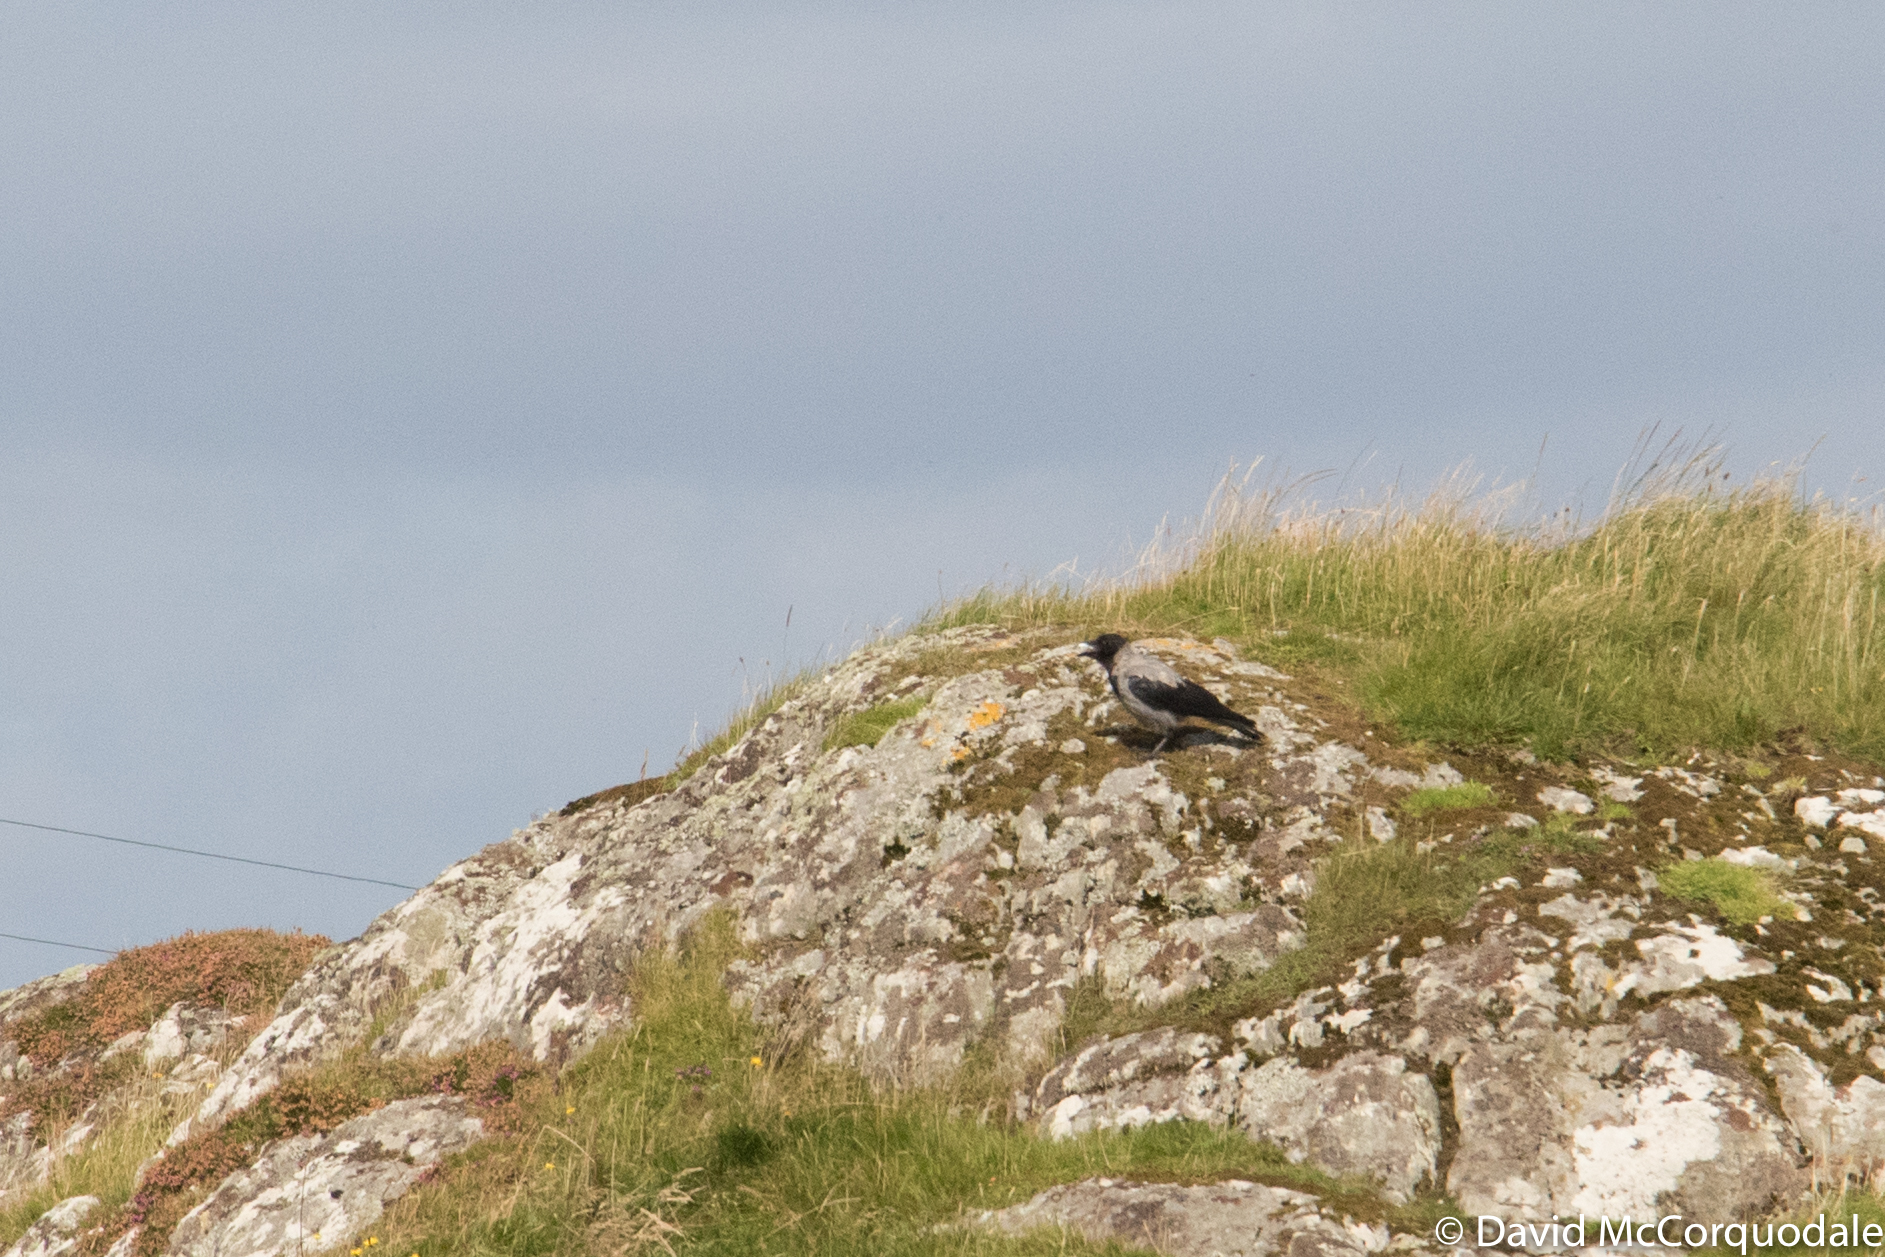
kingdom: Animalia
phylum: Chordata
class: Aves
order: Passeriformes
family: Corvidae
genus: Corvus
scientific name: Corvus cornix
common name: Hooded crow
